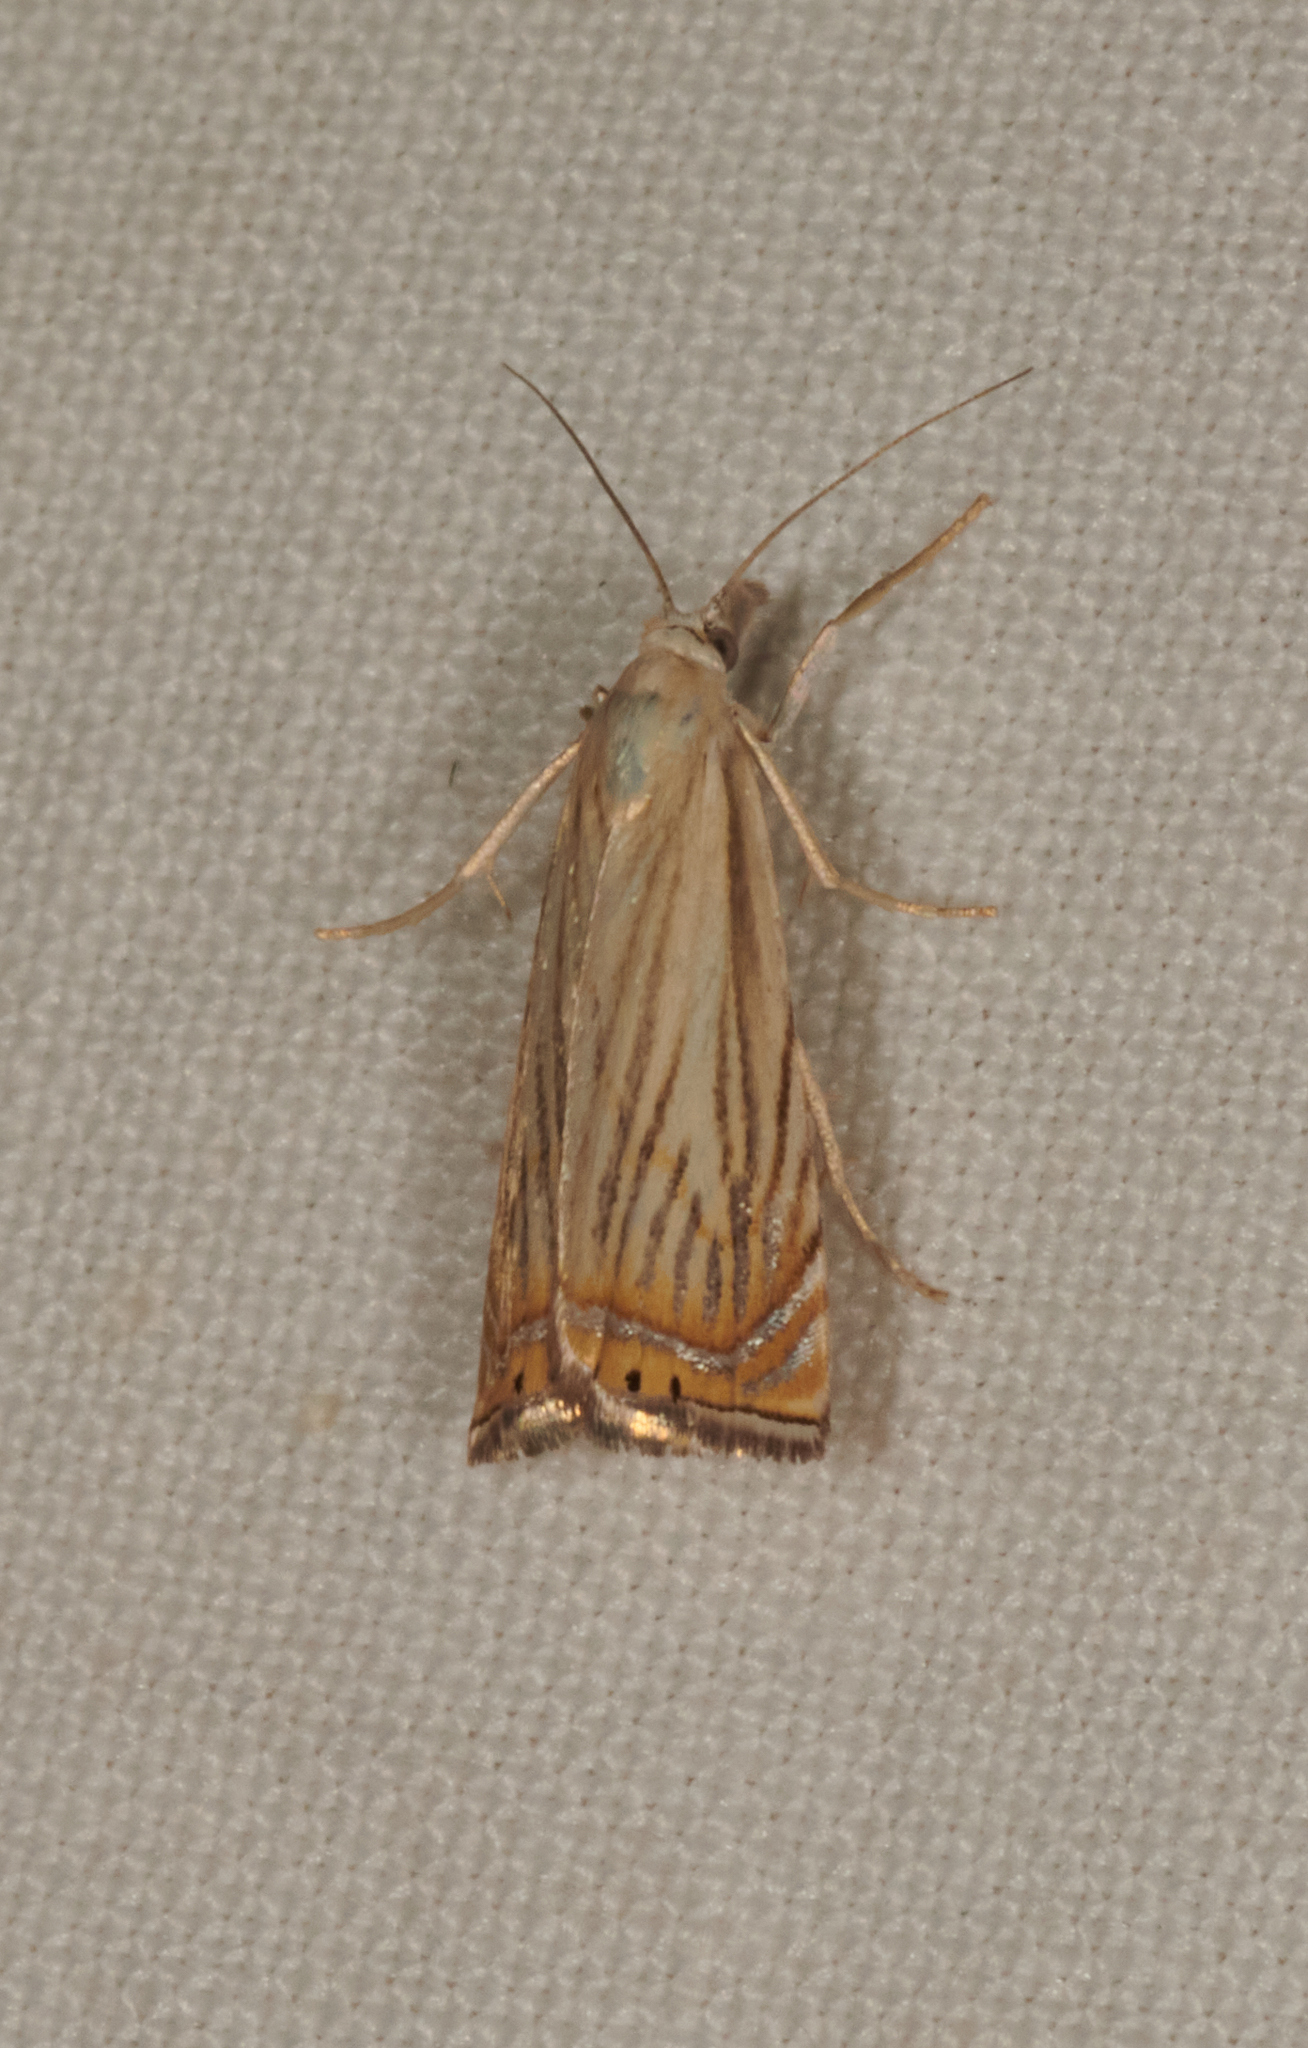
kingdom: Animalia
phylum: Arthropoda
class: Insecta
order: Lepidoptera
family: Crambidae
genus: Chrysoteuchia
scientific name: Chrysoteuchia topiarius
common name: Topiary grass-veneer
